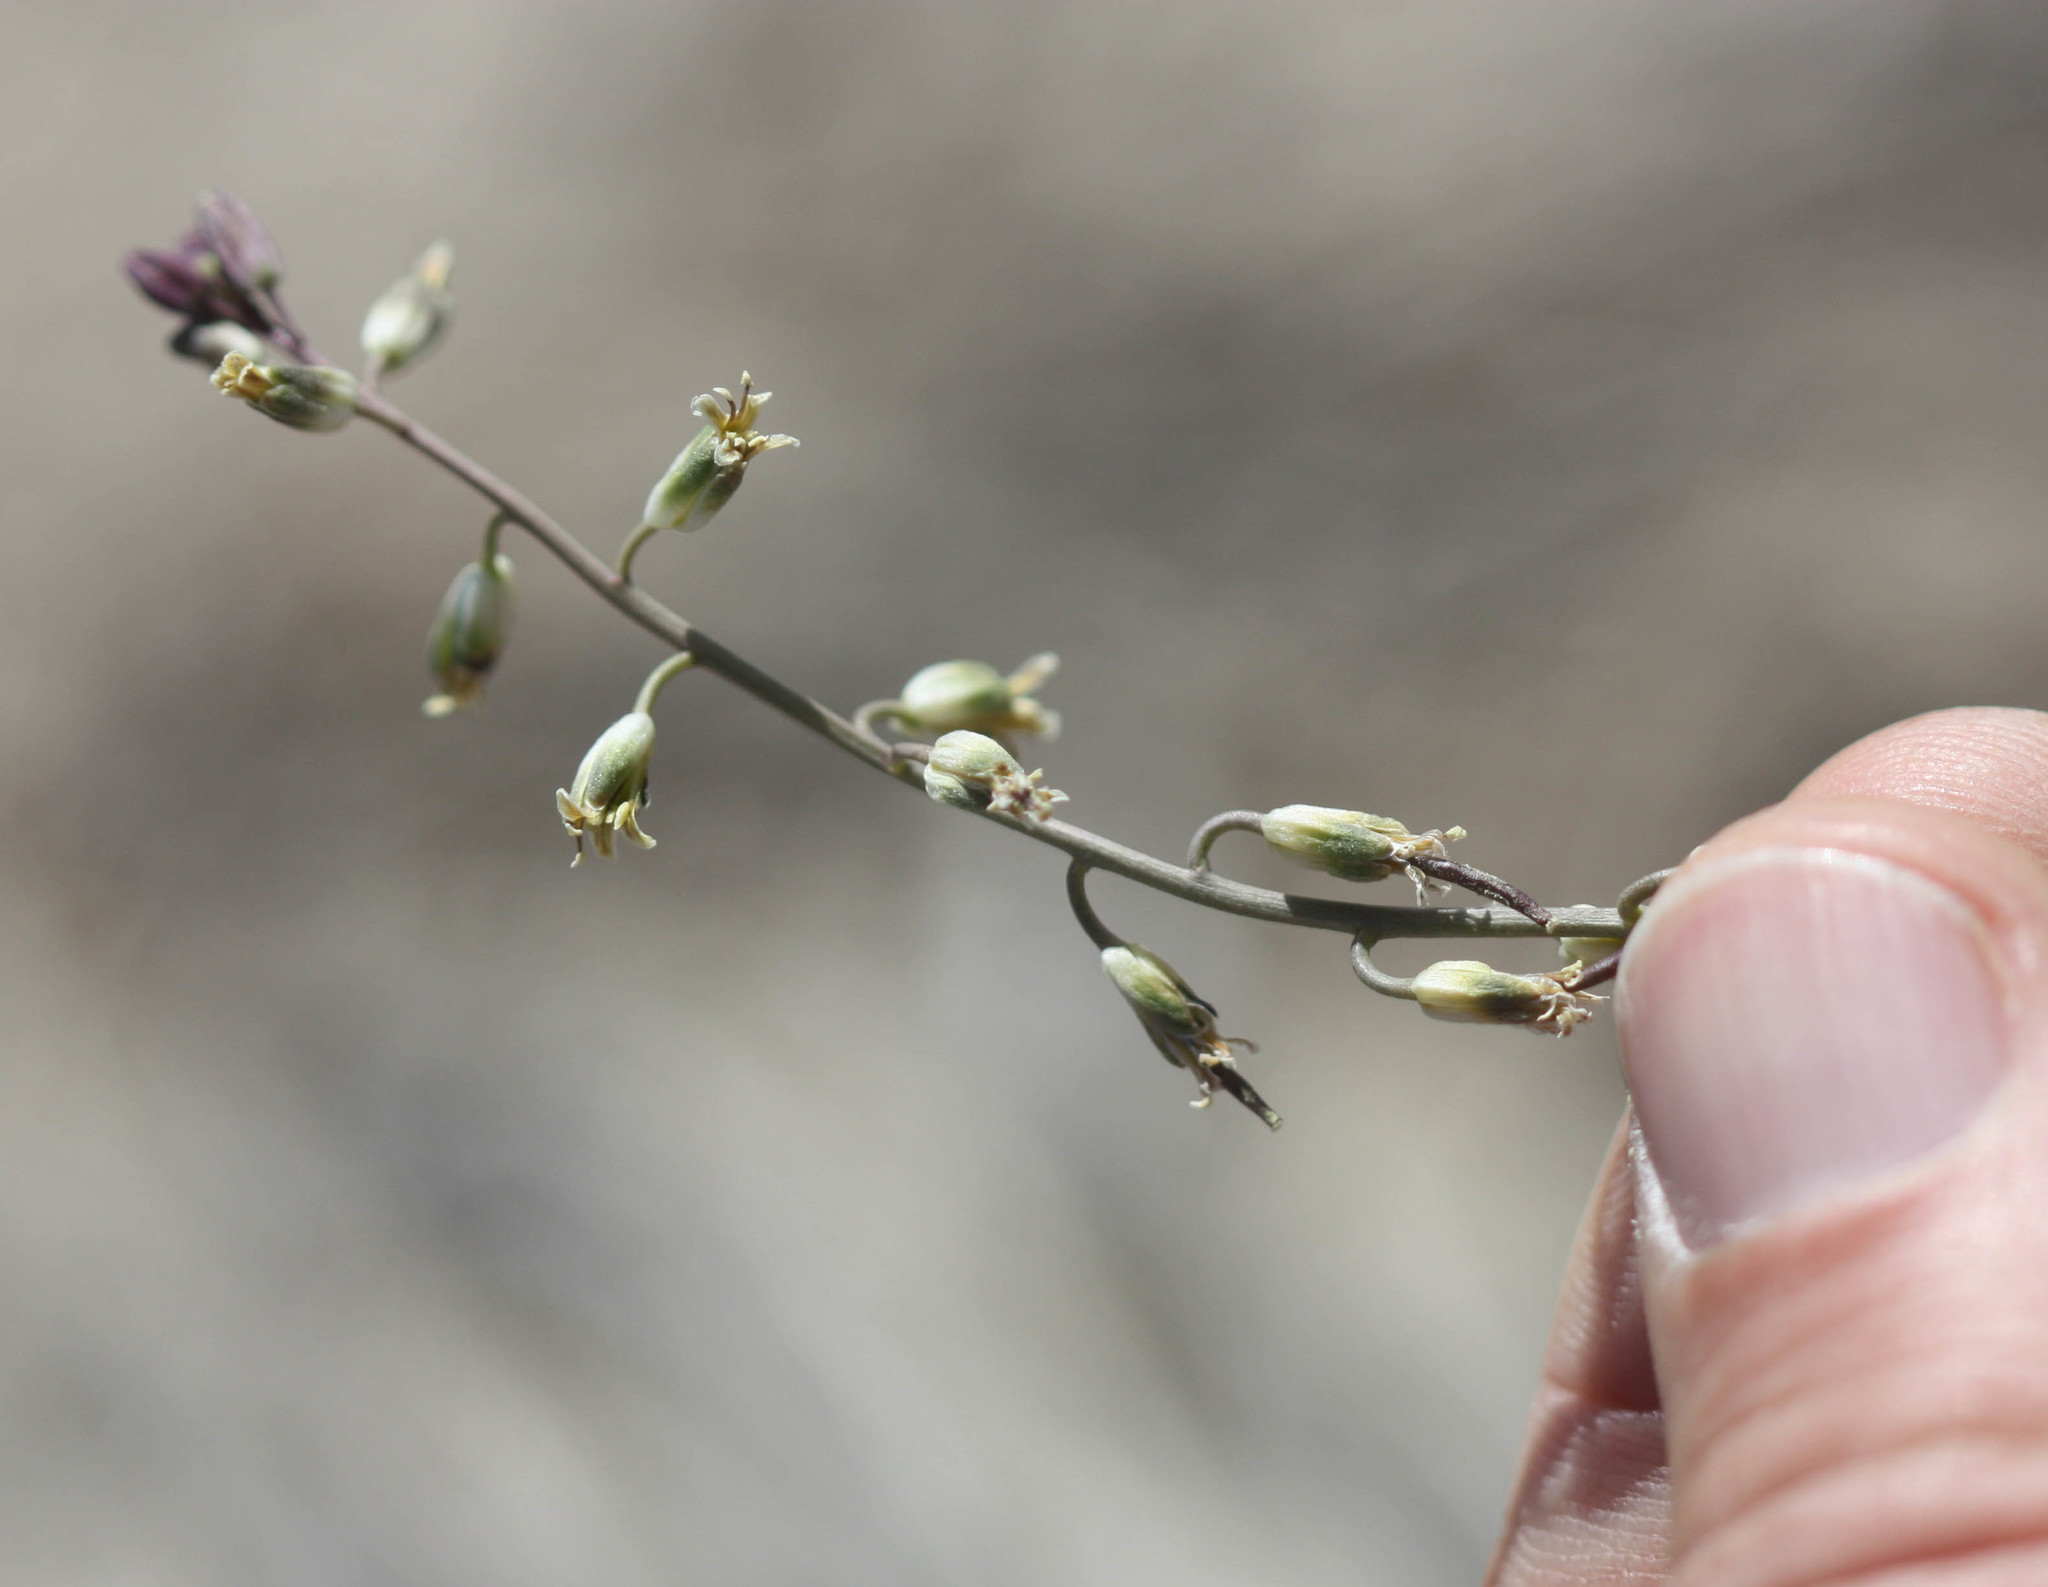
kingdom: Plantae
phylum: Tracheophyta
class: Magnoliopsida
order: Brassicales
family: Brassicaceae
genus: Streptanthus
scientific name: Streptanthus longirostris
